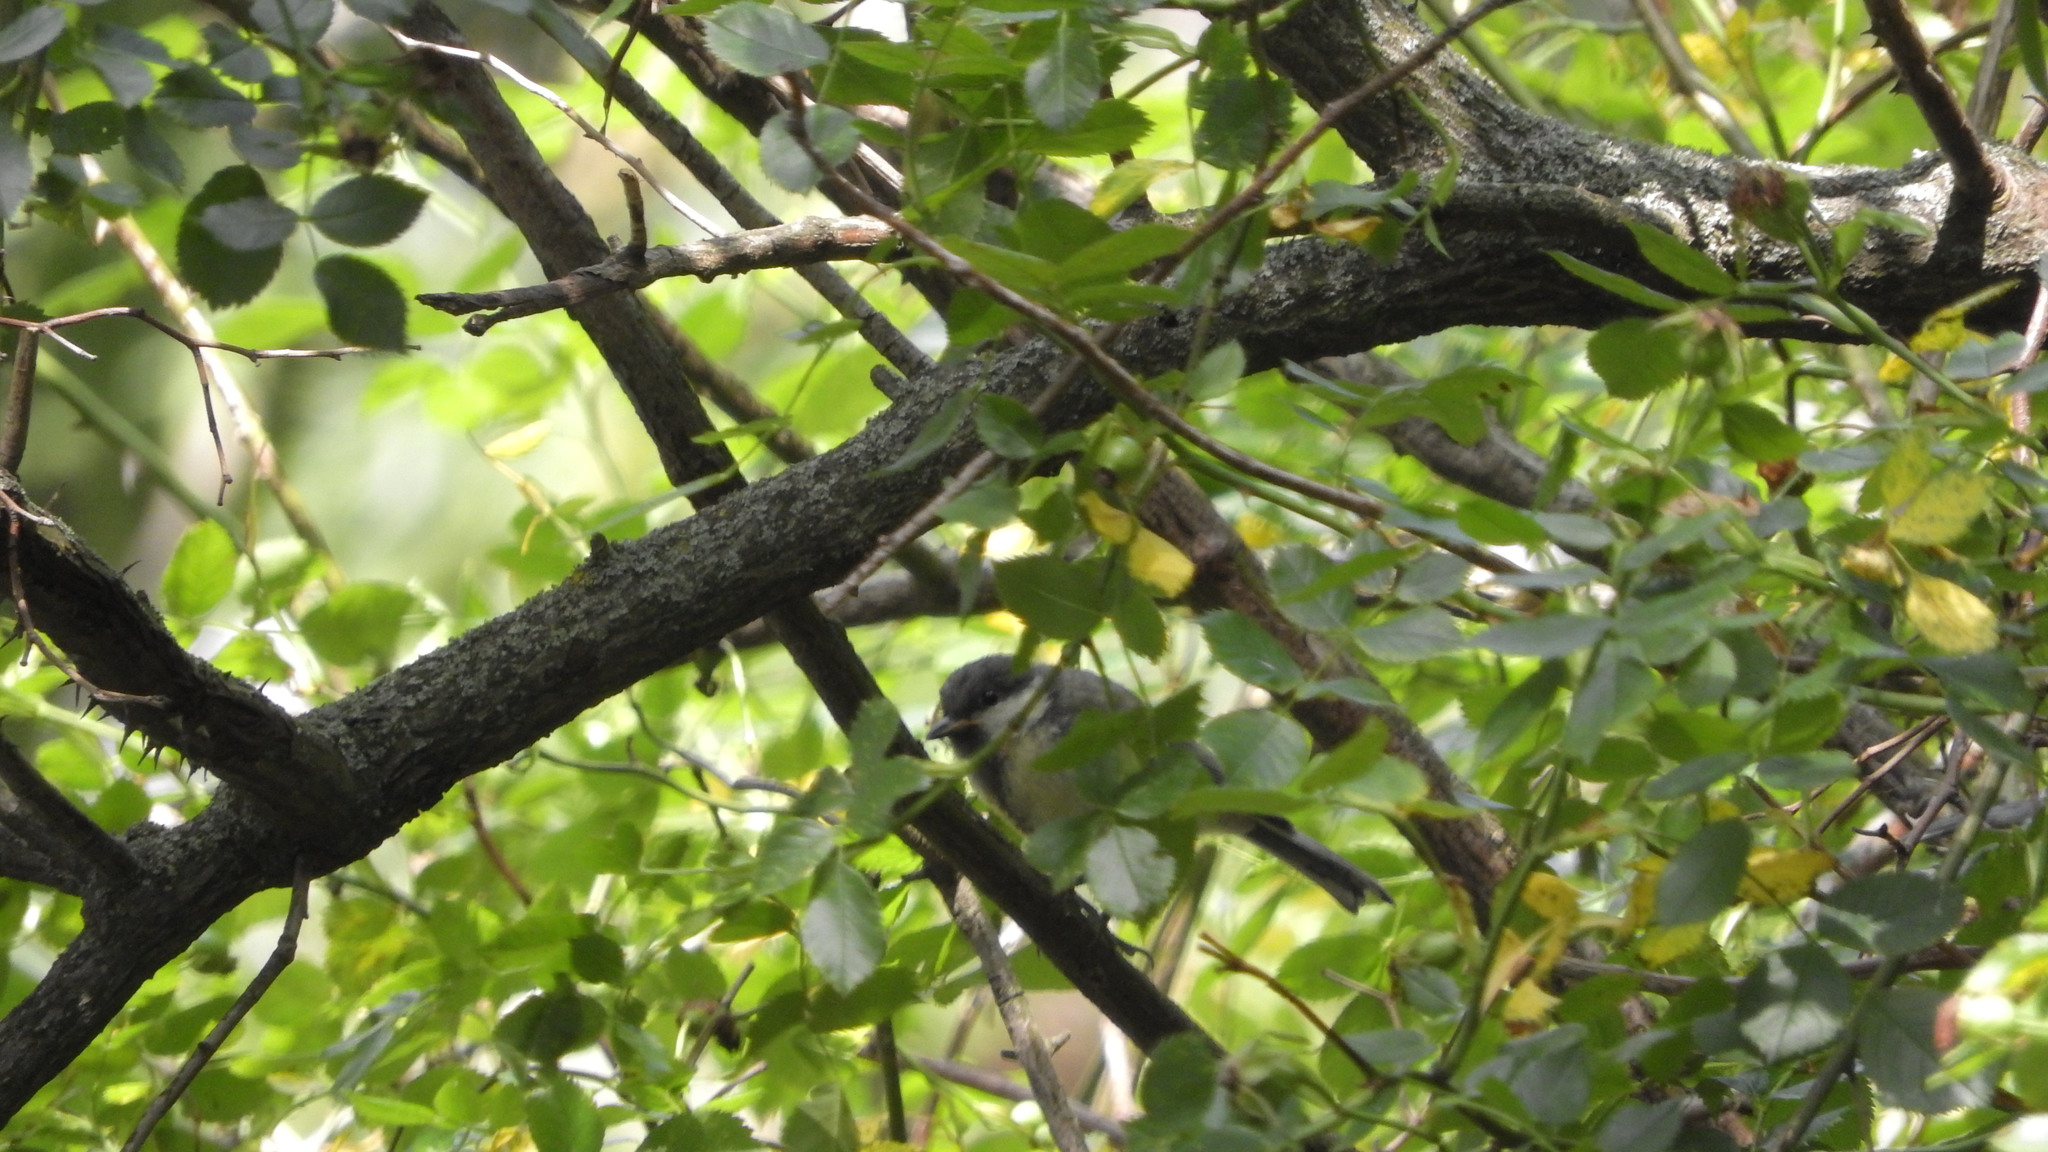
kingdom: Animalia
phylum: Chordata
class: Aves
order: Passeriformes
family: Paridae
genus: Parus
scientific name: Parus major
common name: Great tit
